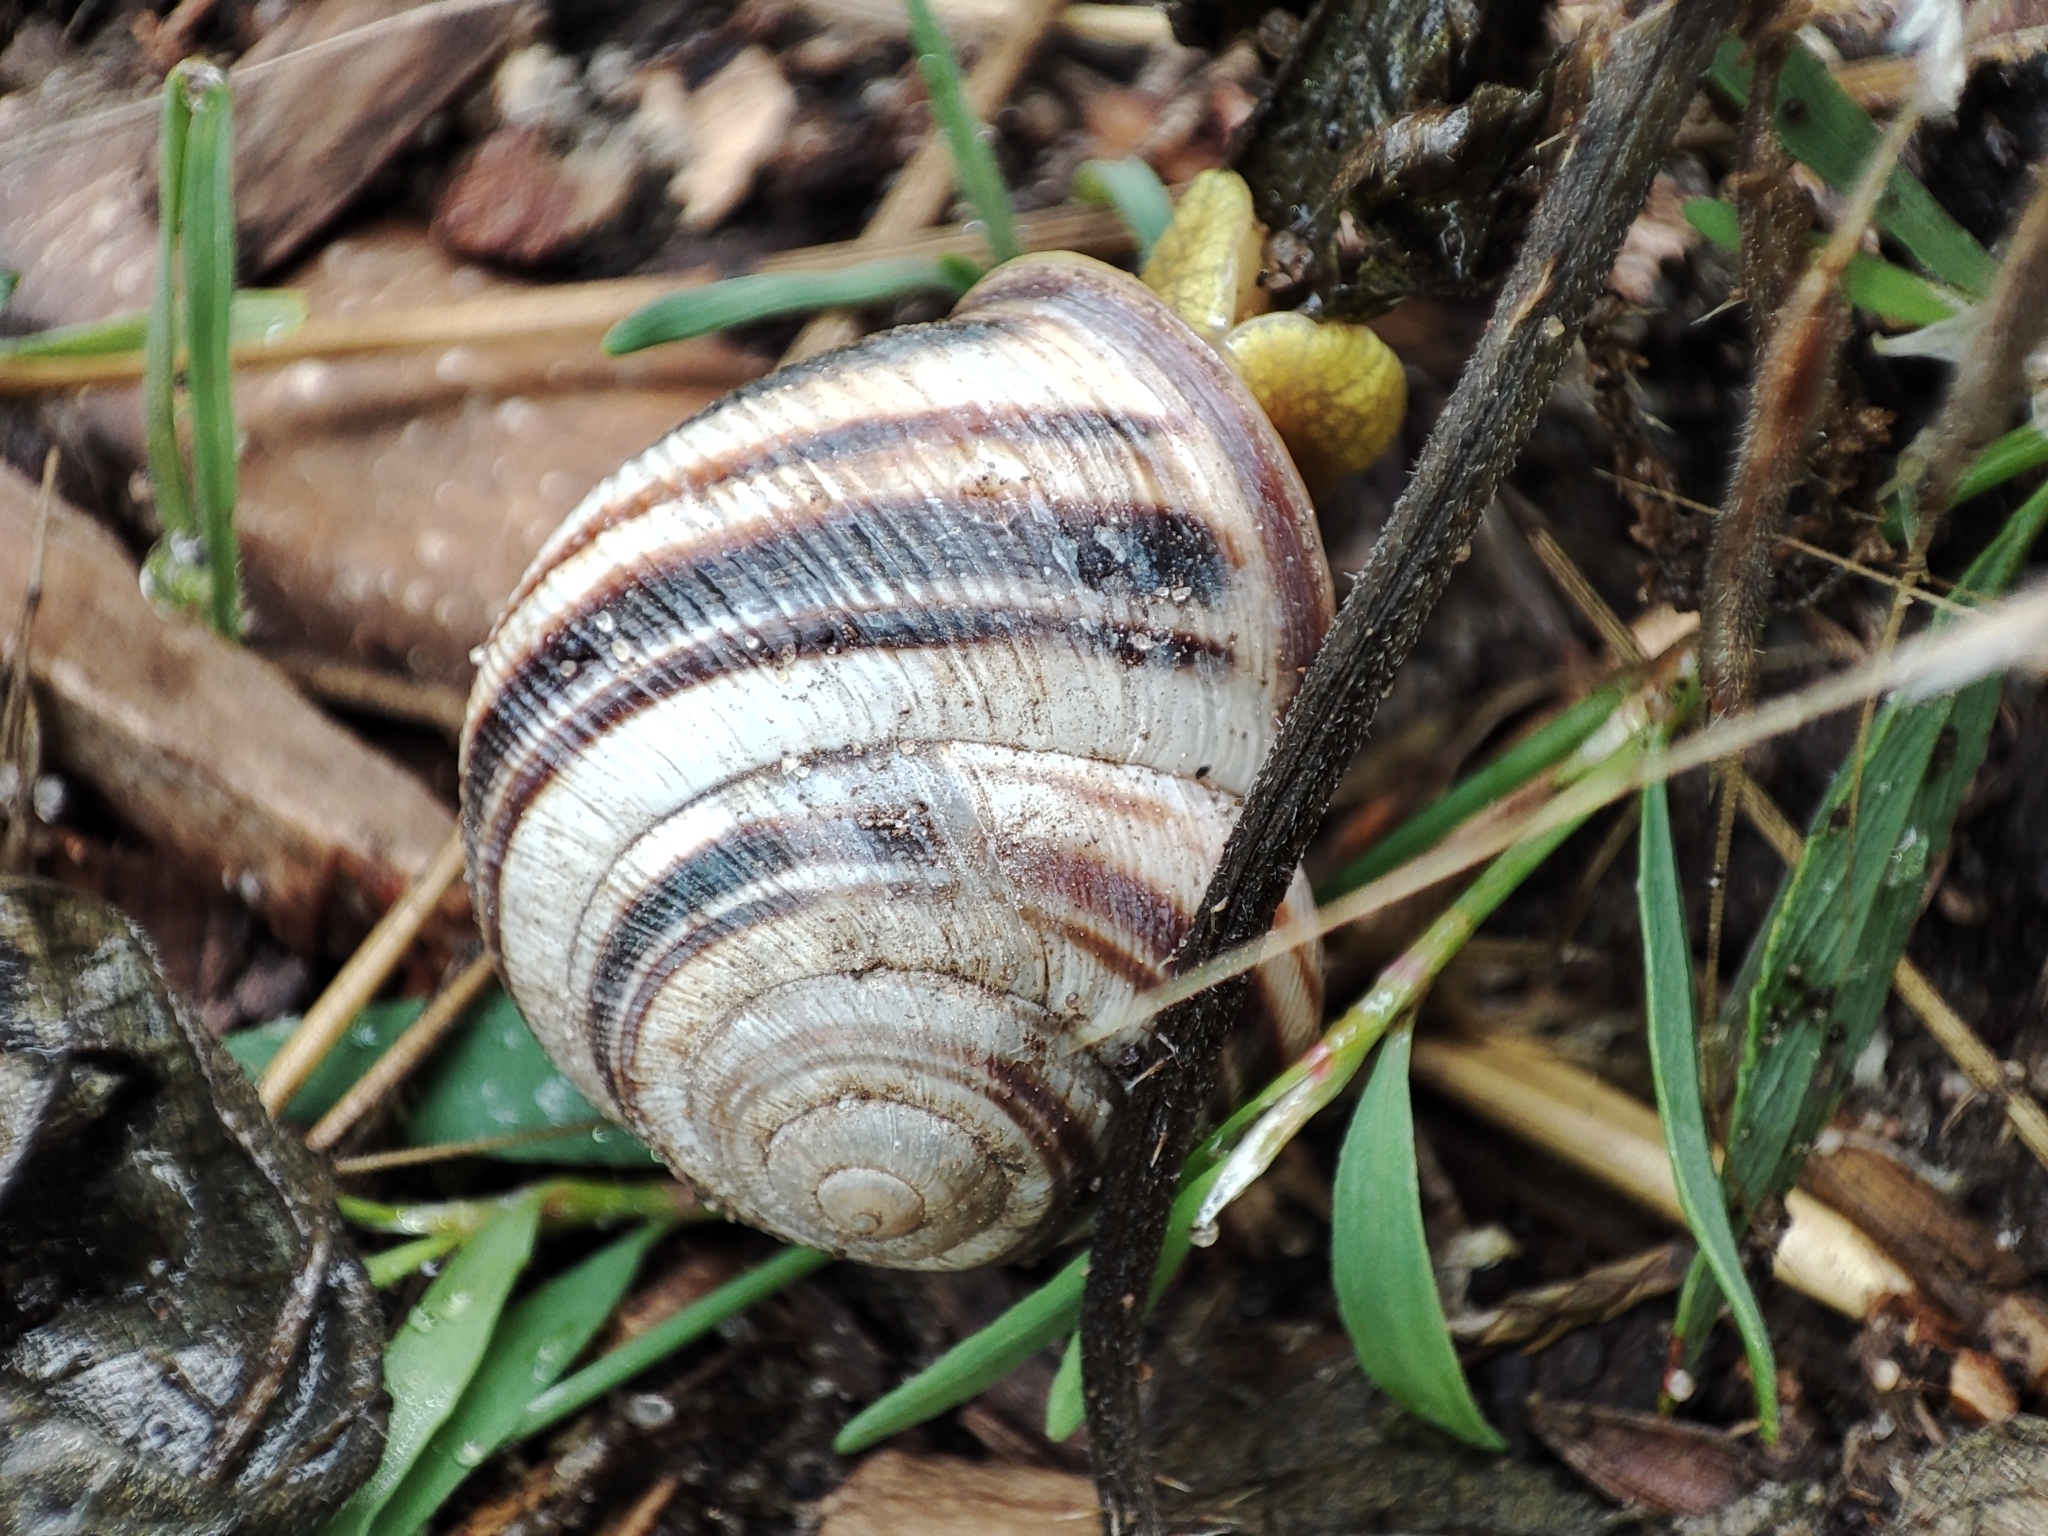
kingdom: Animalia
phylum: Mollusca
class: Gastropoda
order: Stylommatophora
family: Helicidae
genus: Caucasotachea
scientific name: Caucasotachea vindobonensis
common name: European helicid land snail
